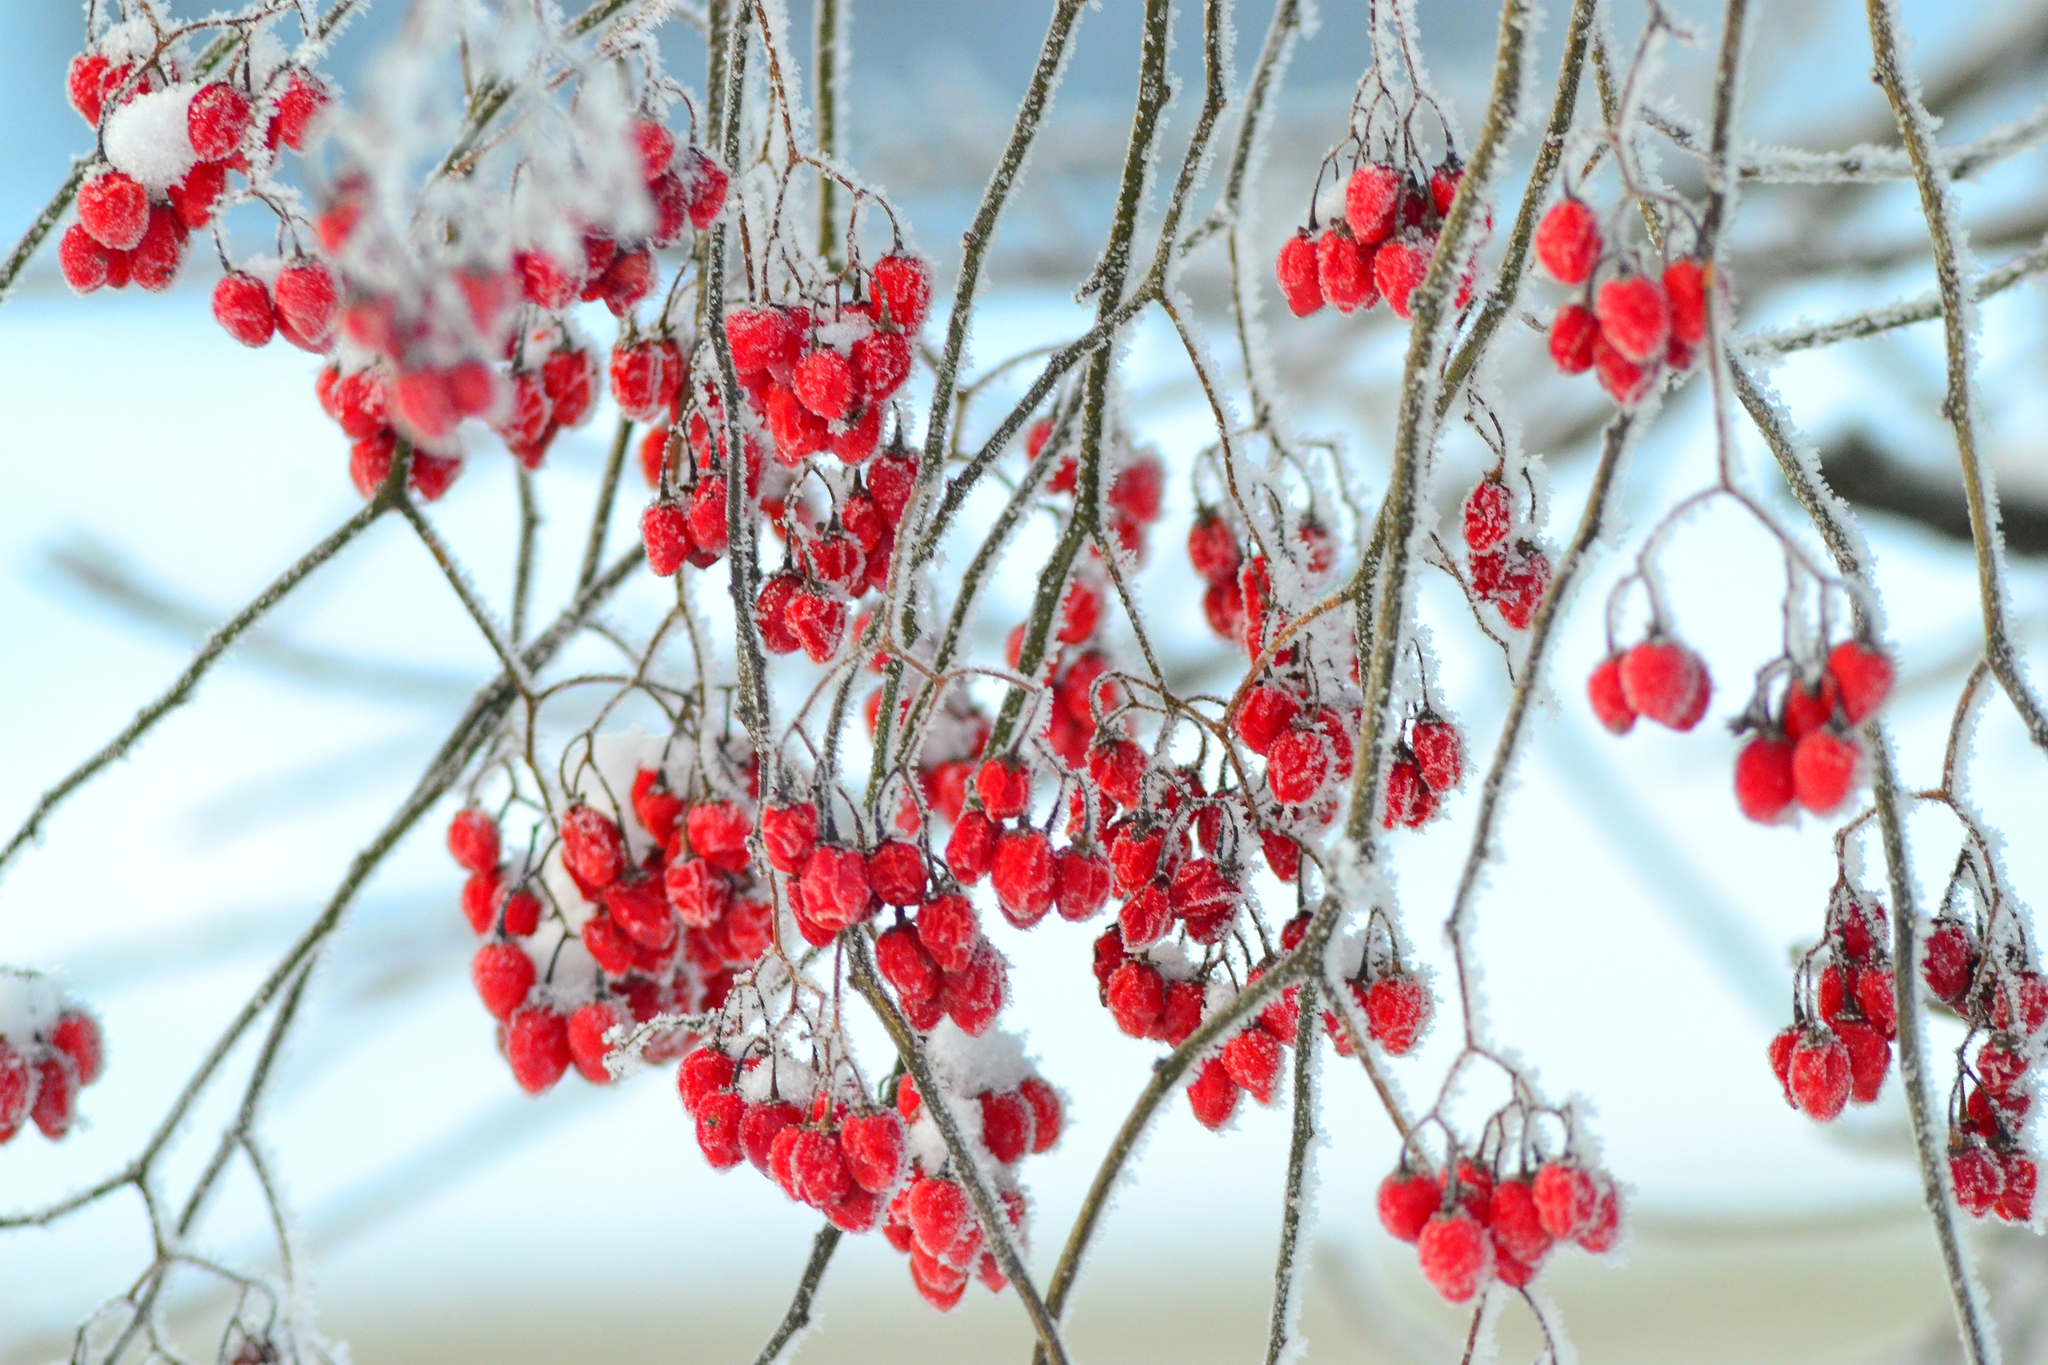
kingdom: Plantae
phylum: Tracheophyta
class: Magnoliopsida
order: Solanales
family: Solanaceae
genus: Solanum
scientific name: Solanum dulcamara
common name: Climbing nightshade
